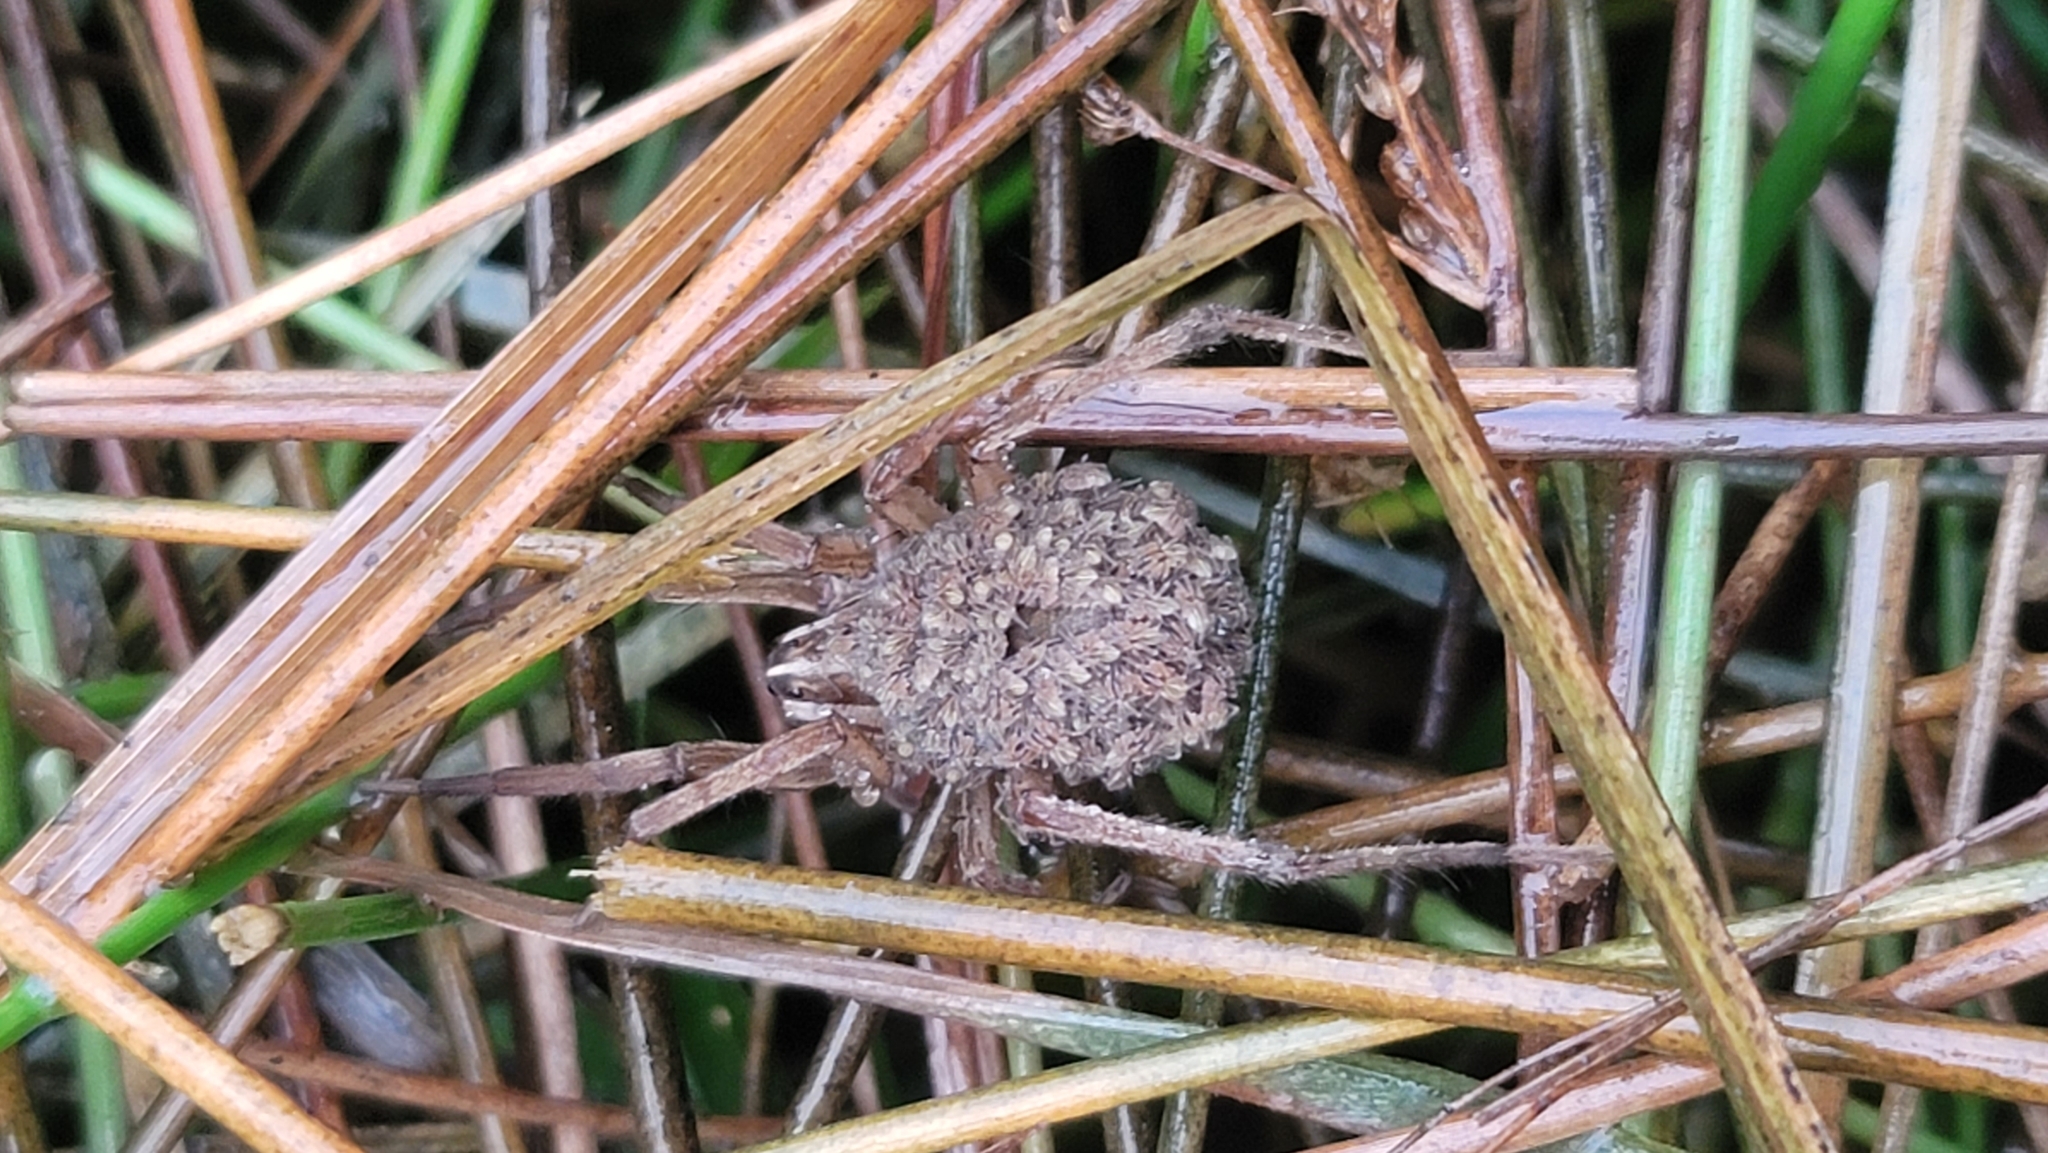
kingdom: Animalia
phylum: Arthropoda
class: Arachnida
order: Araneae
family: Lycosidae
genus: Rabidosa
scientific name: Rabidosa
